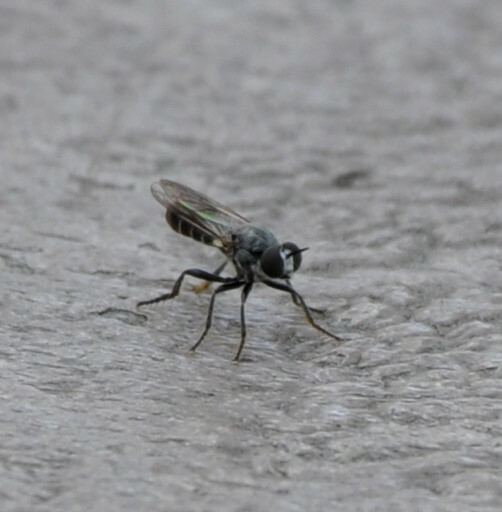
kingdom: Animalia
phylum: Arthropoda
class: Insecta
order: Diptera
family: Asilidae
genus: Atomosia
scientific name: Atomosia puella
